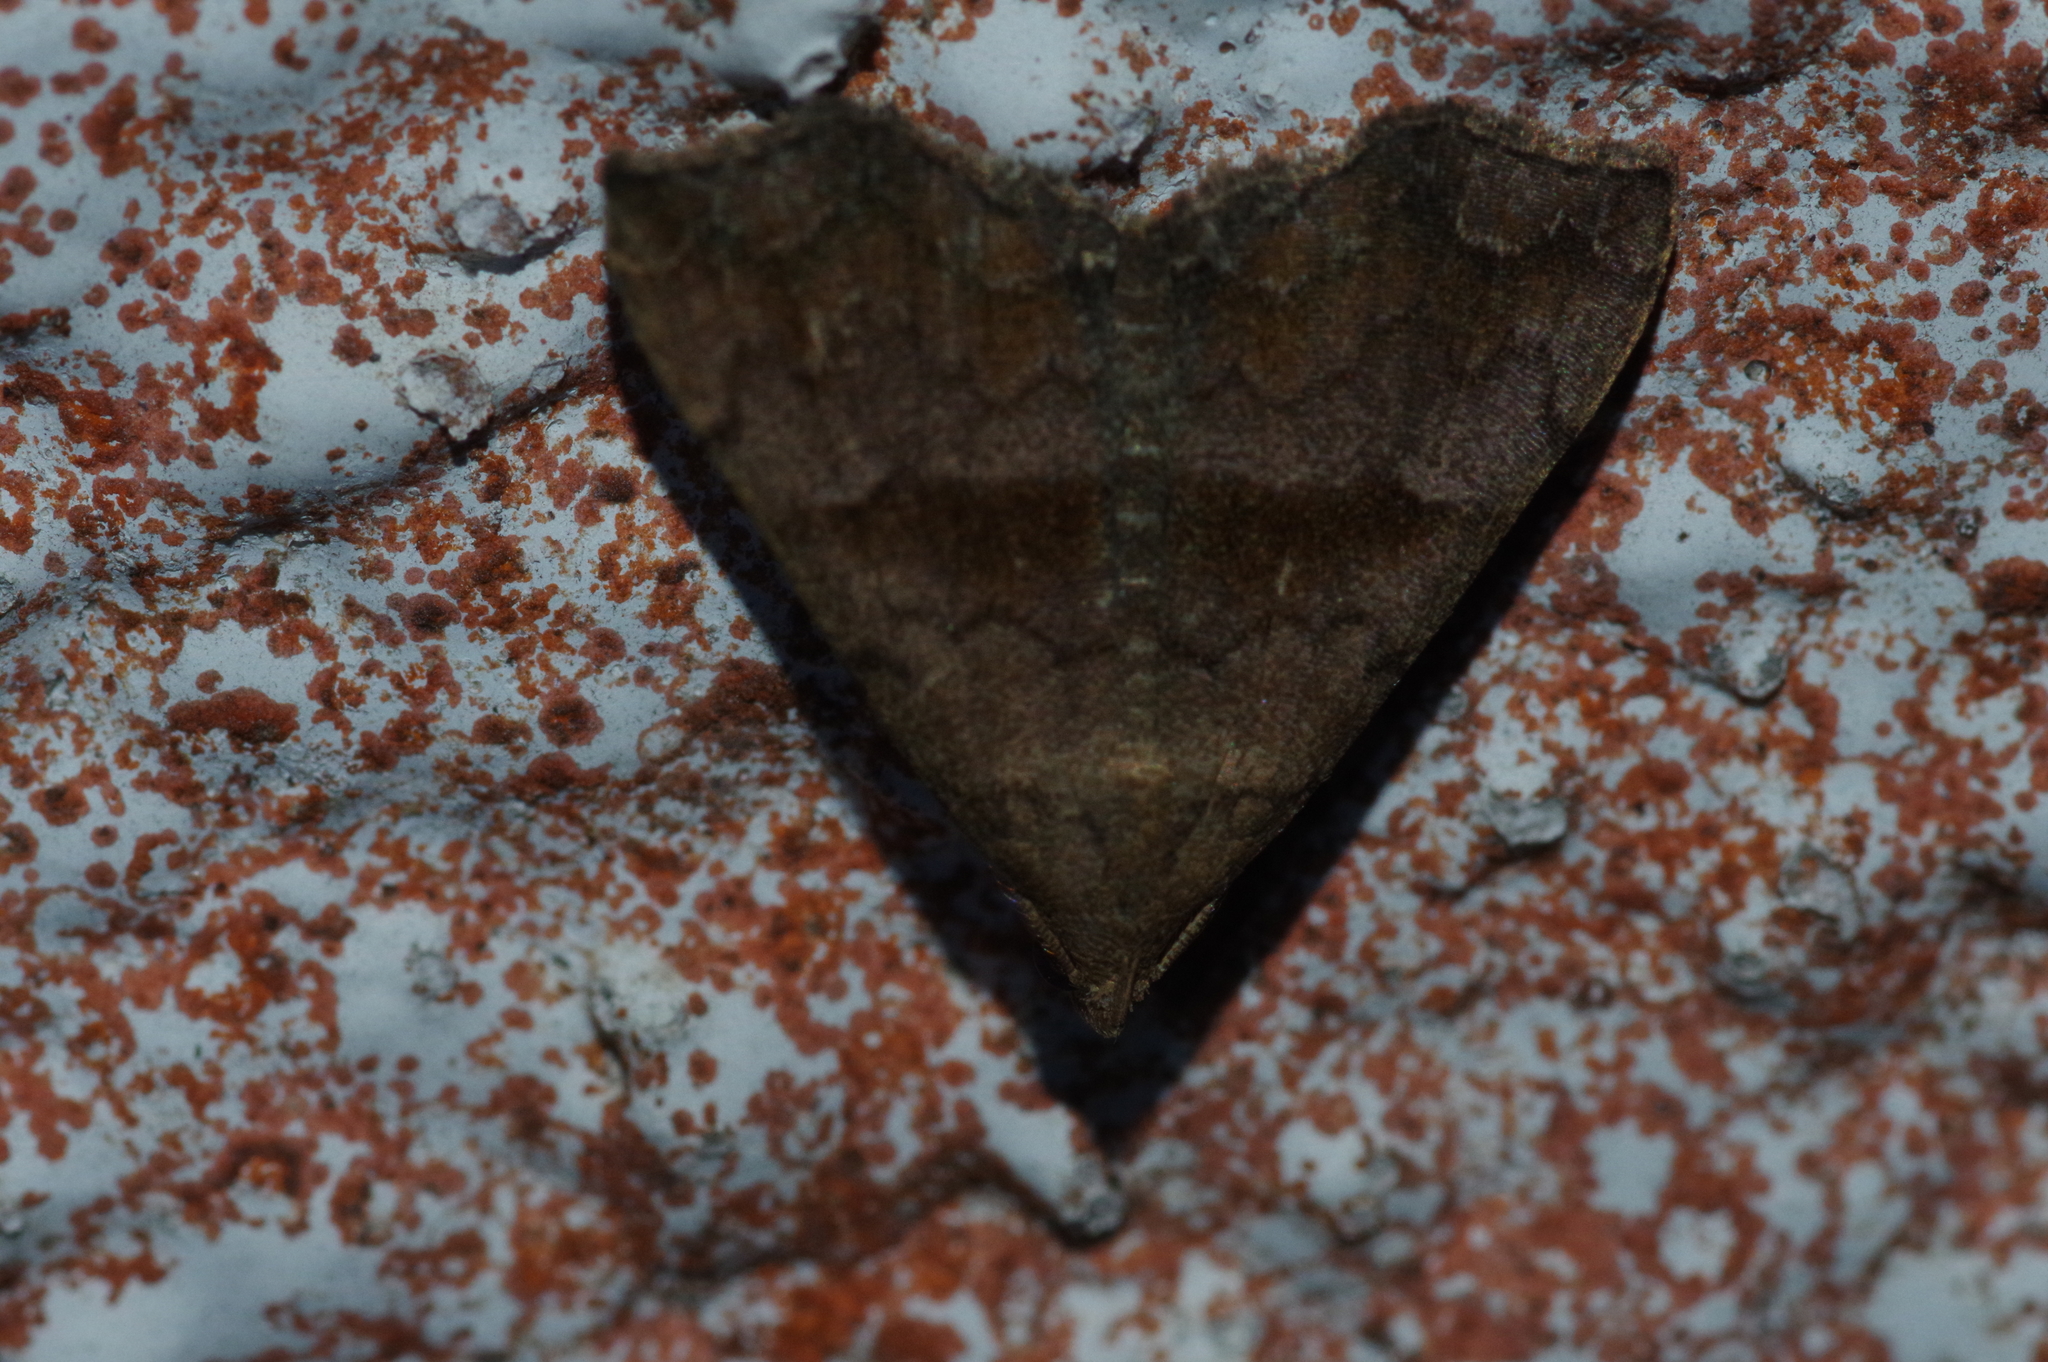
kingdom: Animalia
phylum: Arthropoda
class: Insecta
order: Lepidoptera
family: Erebidae
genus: Polypogon
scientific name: Polypogon Hipoepa fractalis
